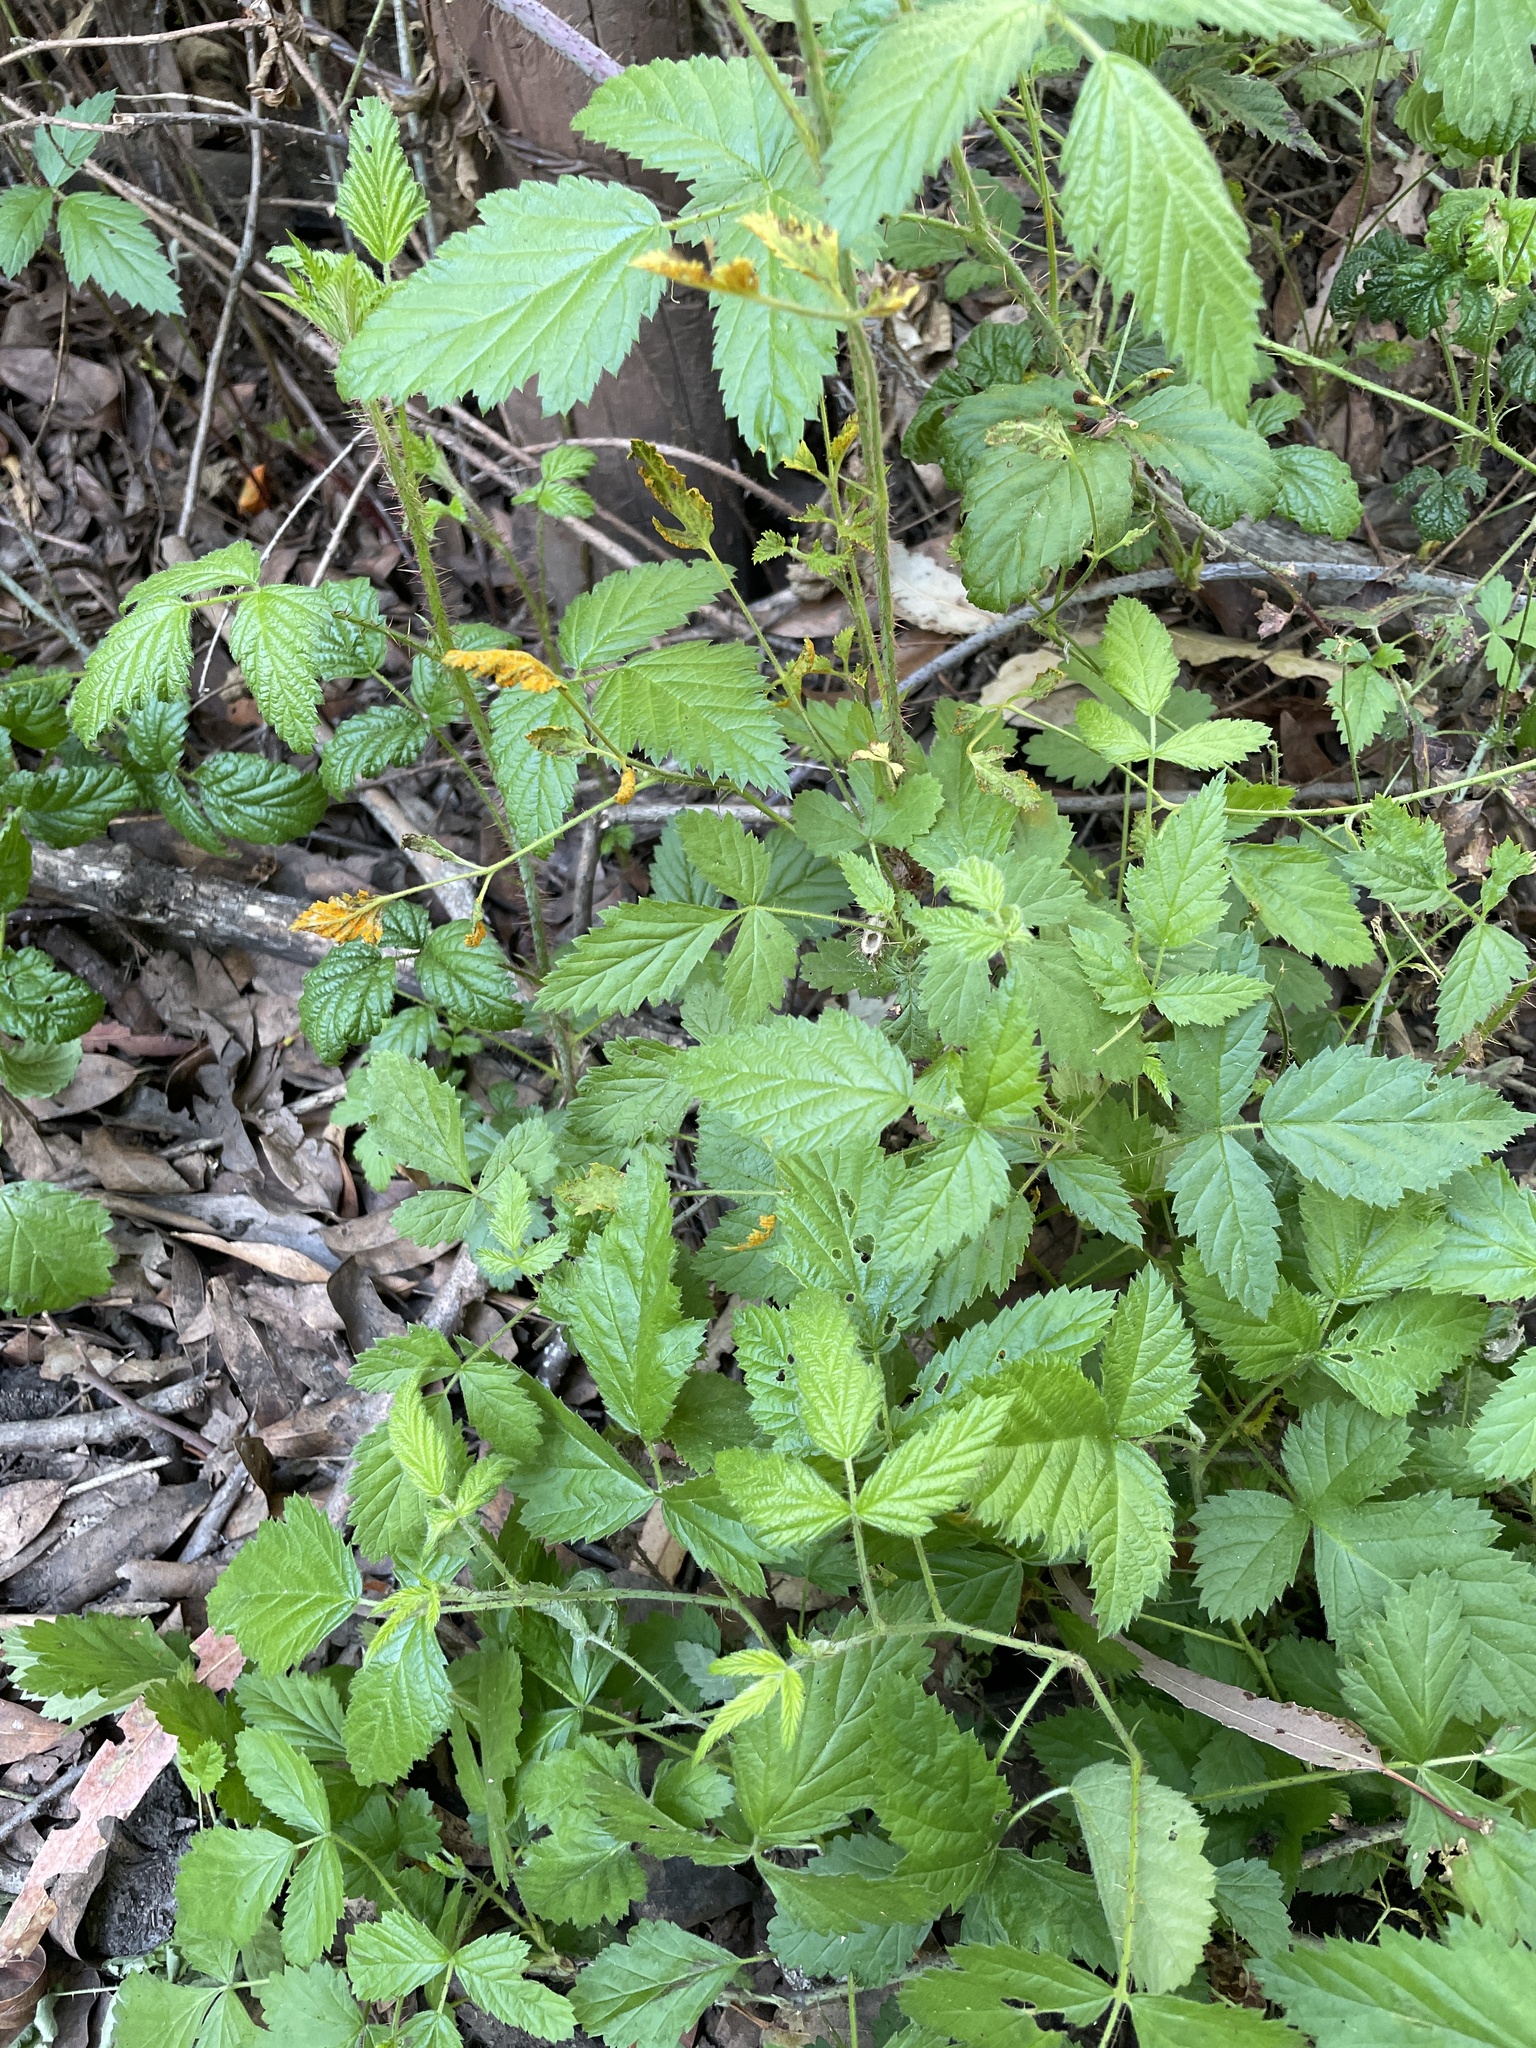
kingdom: Fungi
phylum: Basidiomycota
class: Pucciniomycetes
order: Pucciniales
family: Phragmidiaceae
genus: Arthuriomyces
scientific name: Arthuriomyces peckianus
